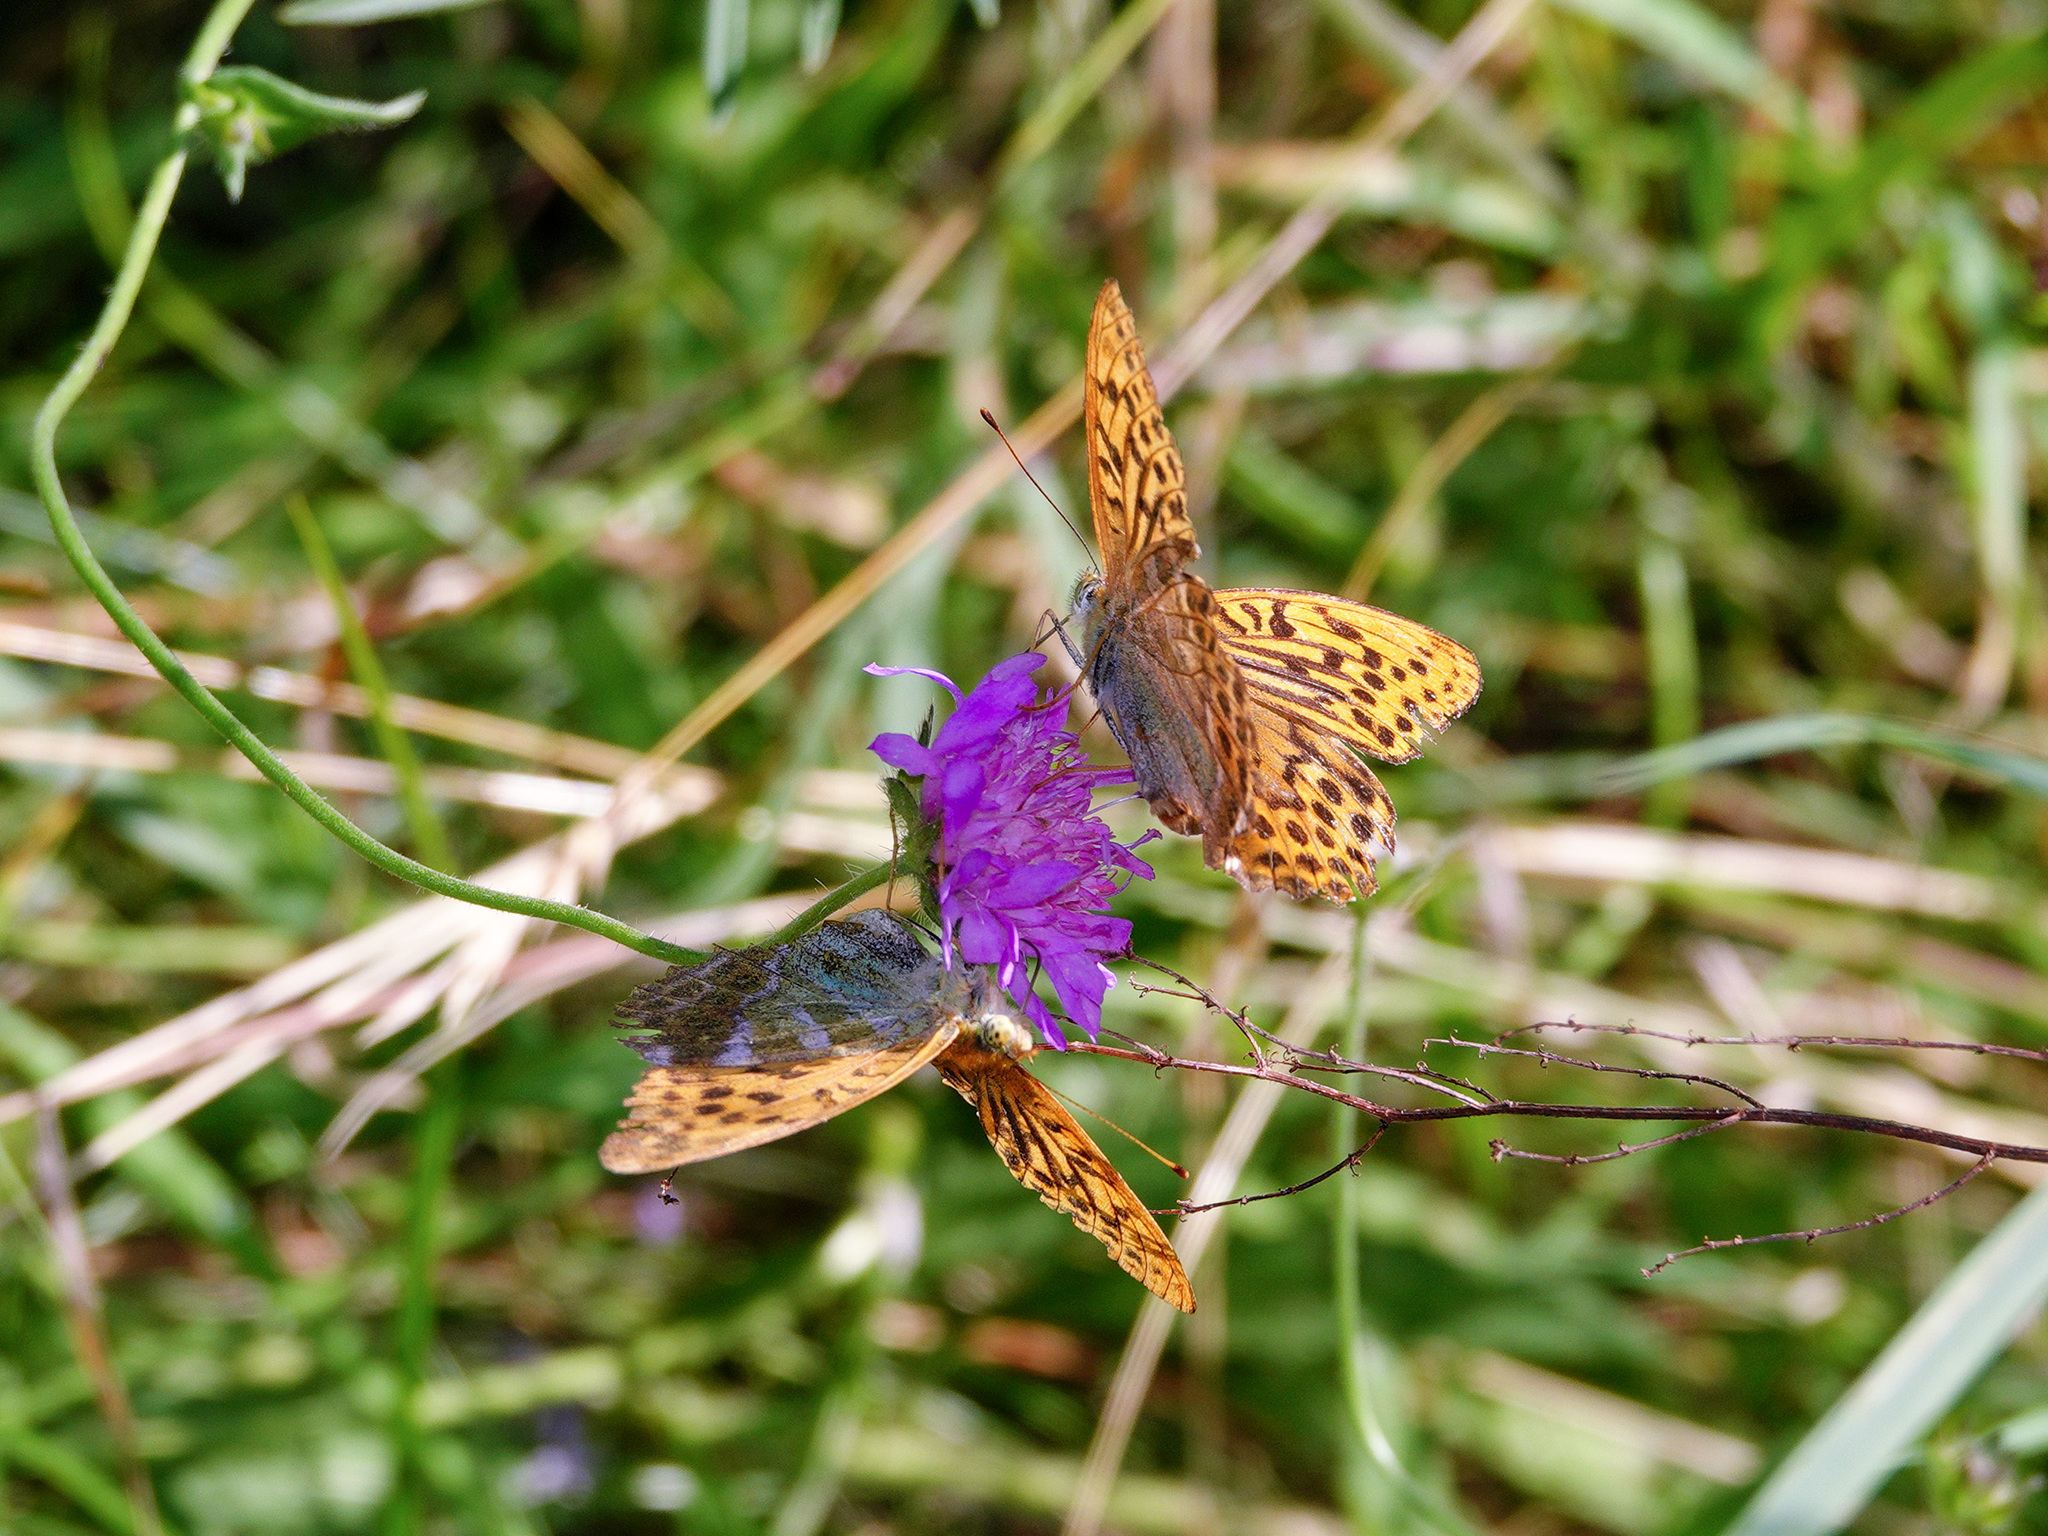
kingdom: Animalia
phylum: Arthropoda
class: Insecta
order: Lepidoptera
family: Nymphalidae
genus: Argynnis
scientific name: Argynnis paphia
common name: Silver-washed fritillary
